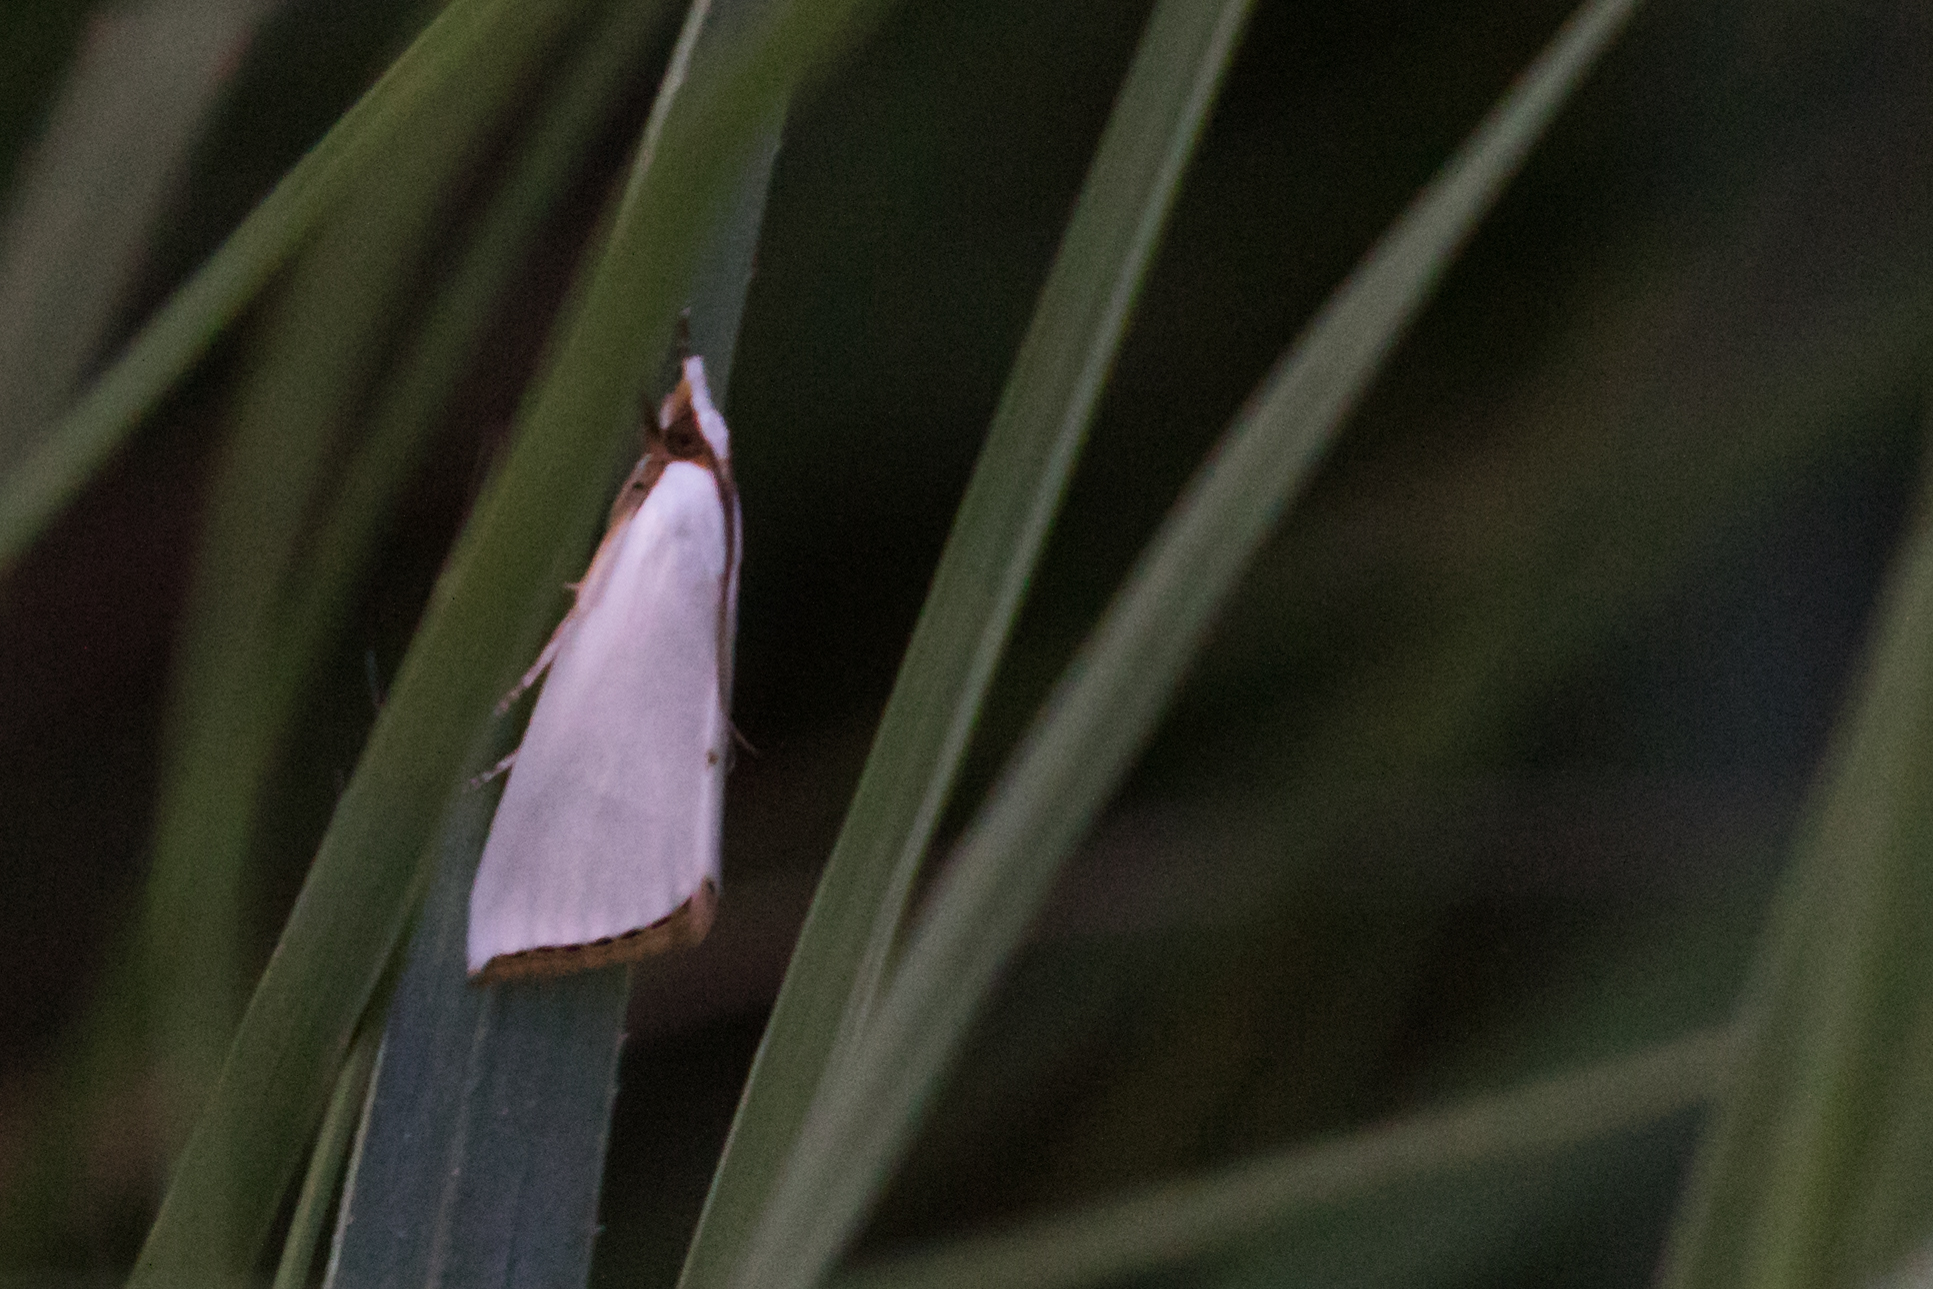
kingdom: Animalia
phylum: Arthropoda
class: Insecta
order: Lepidoptera
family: Crambidae
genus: Argyria
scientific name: Argyria nivalis
